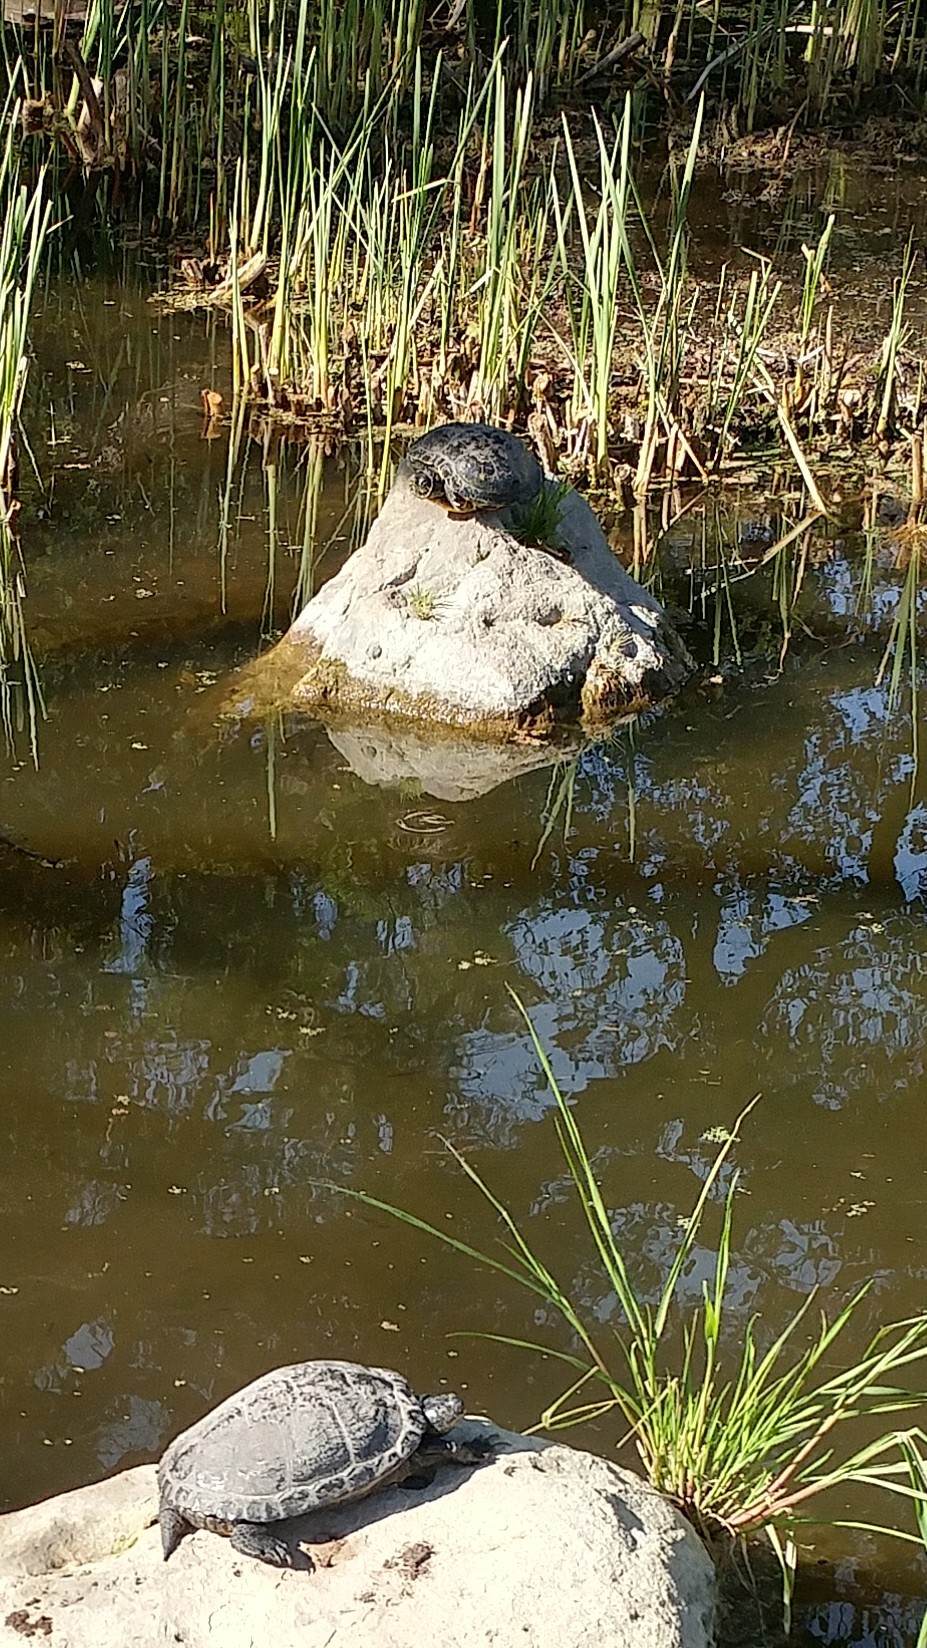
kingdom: Animalia
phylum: Chordata
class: Testudines
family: Emydidae
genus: Trachemys
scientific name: Trachemys scripta
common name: Slider
